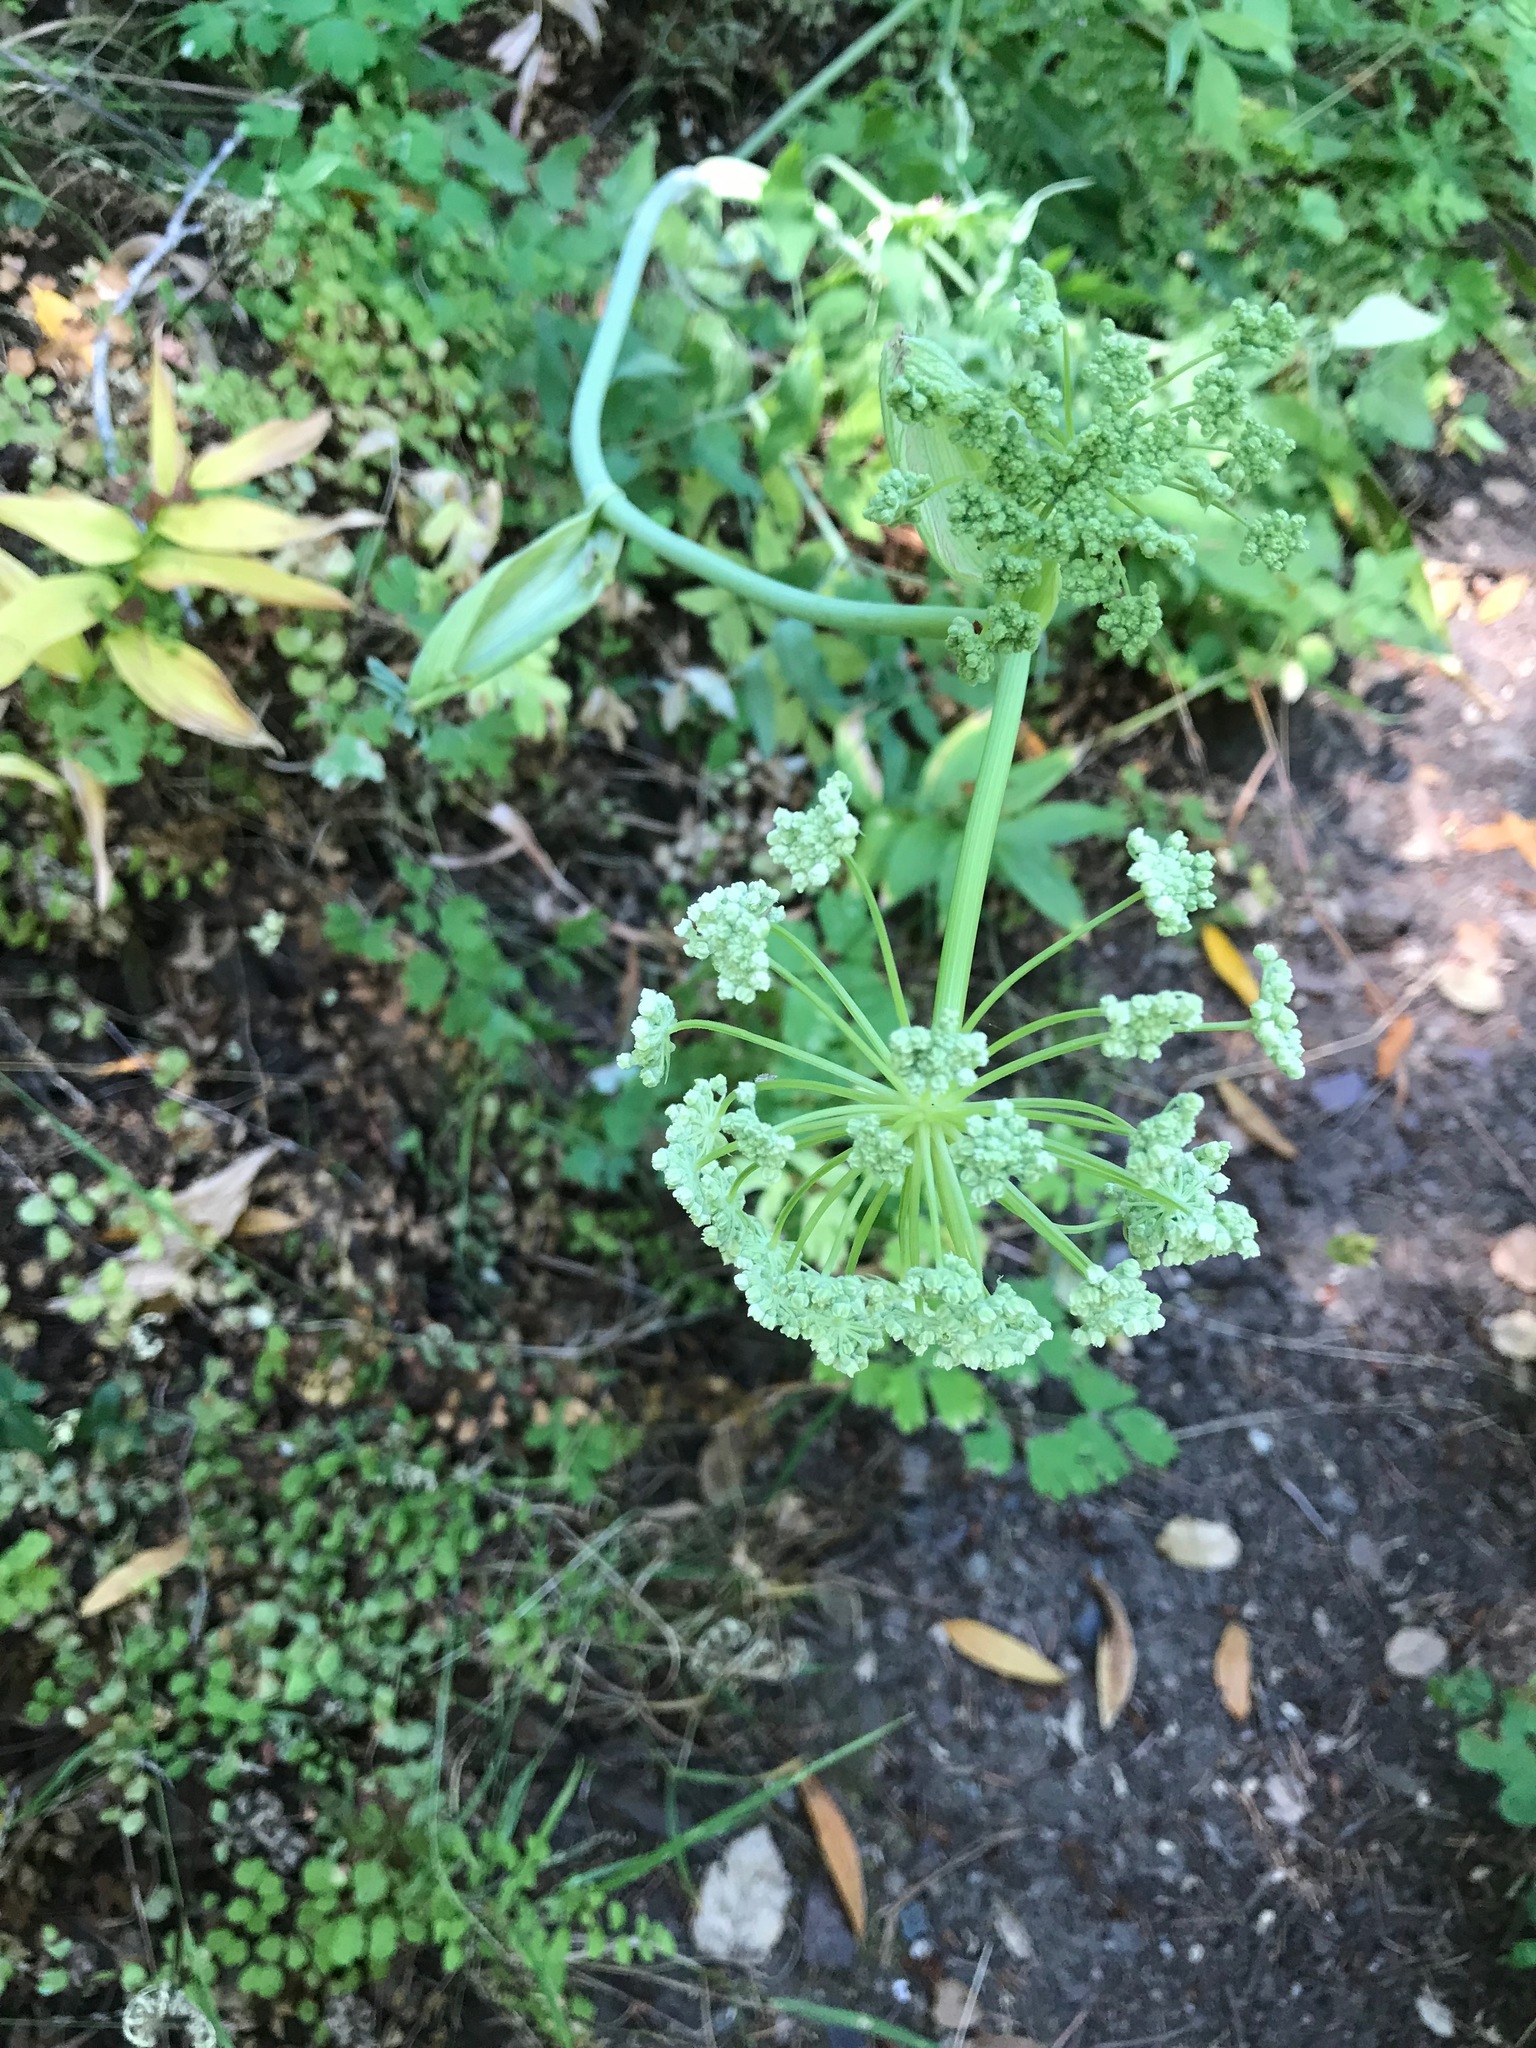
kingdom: Plantae
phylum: Tracheophyta
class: Magnoliopsida
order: Apiales
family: Apiaceae
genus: Angelica
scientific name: Angelica tomentosa
